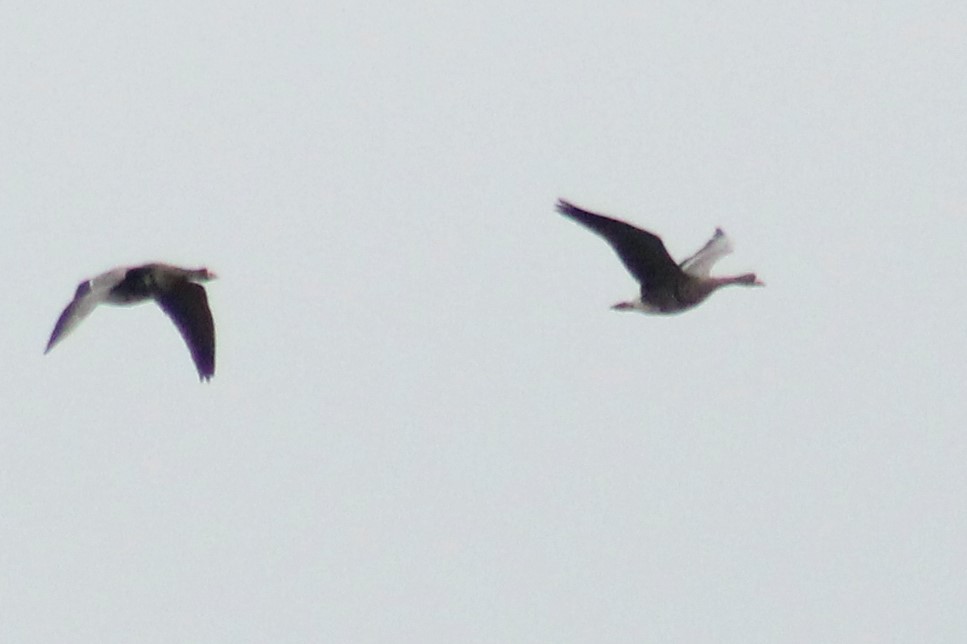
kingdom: Animalia
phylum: Chordata
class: Aves
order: Anseriformes
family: Anatidae
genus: Anser
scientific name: Anser albifrons
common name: Greater white-fronted goose
